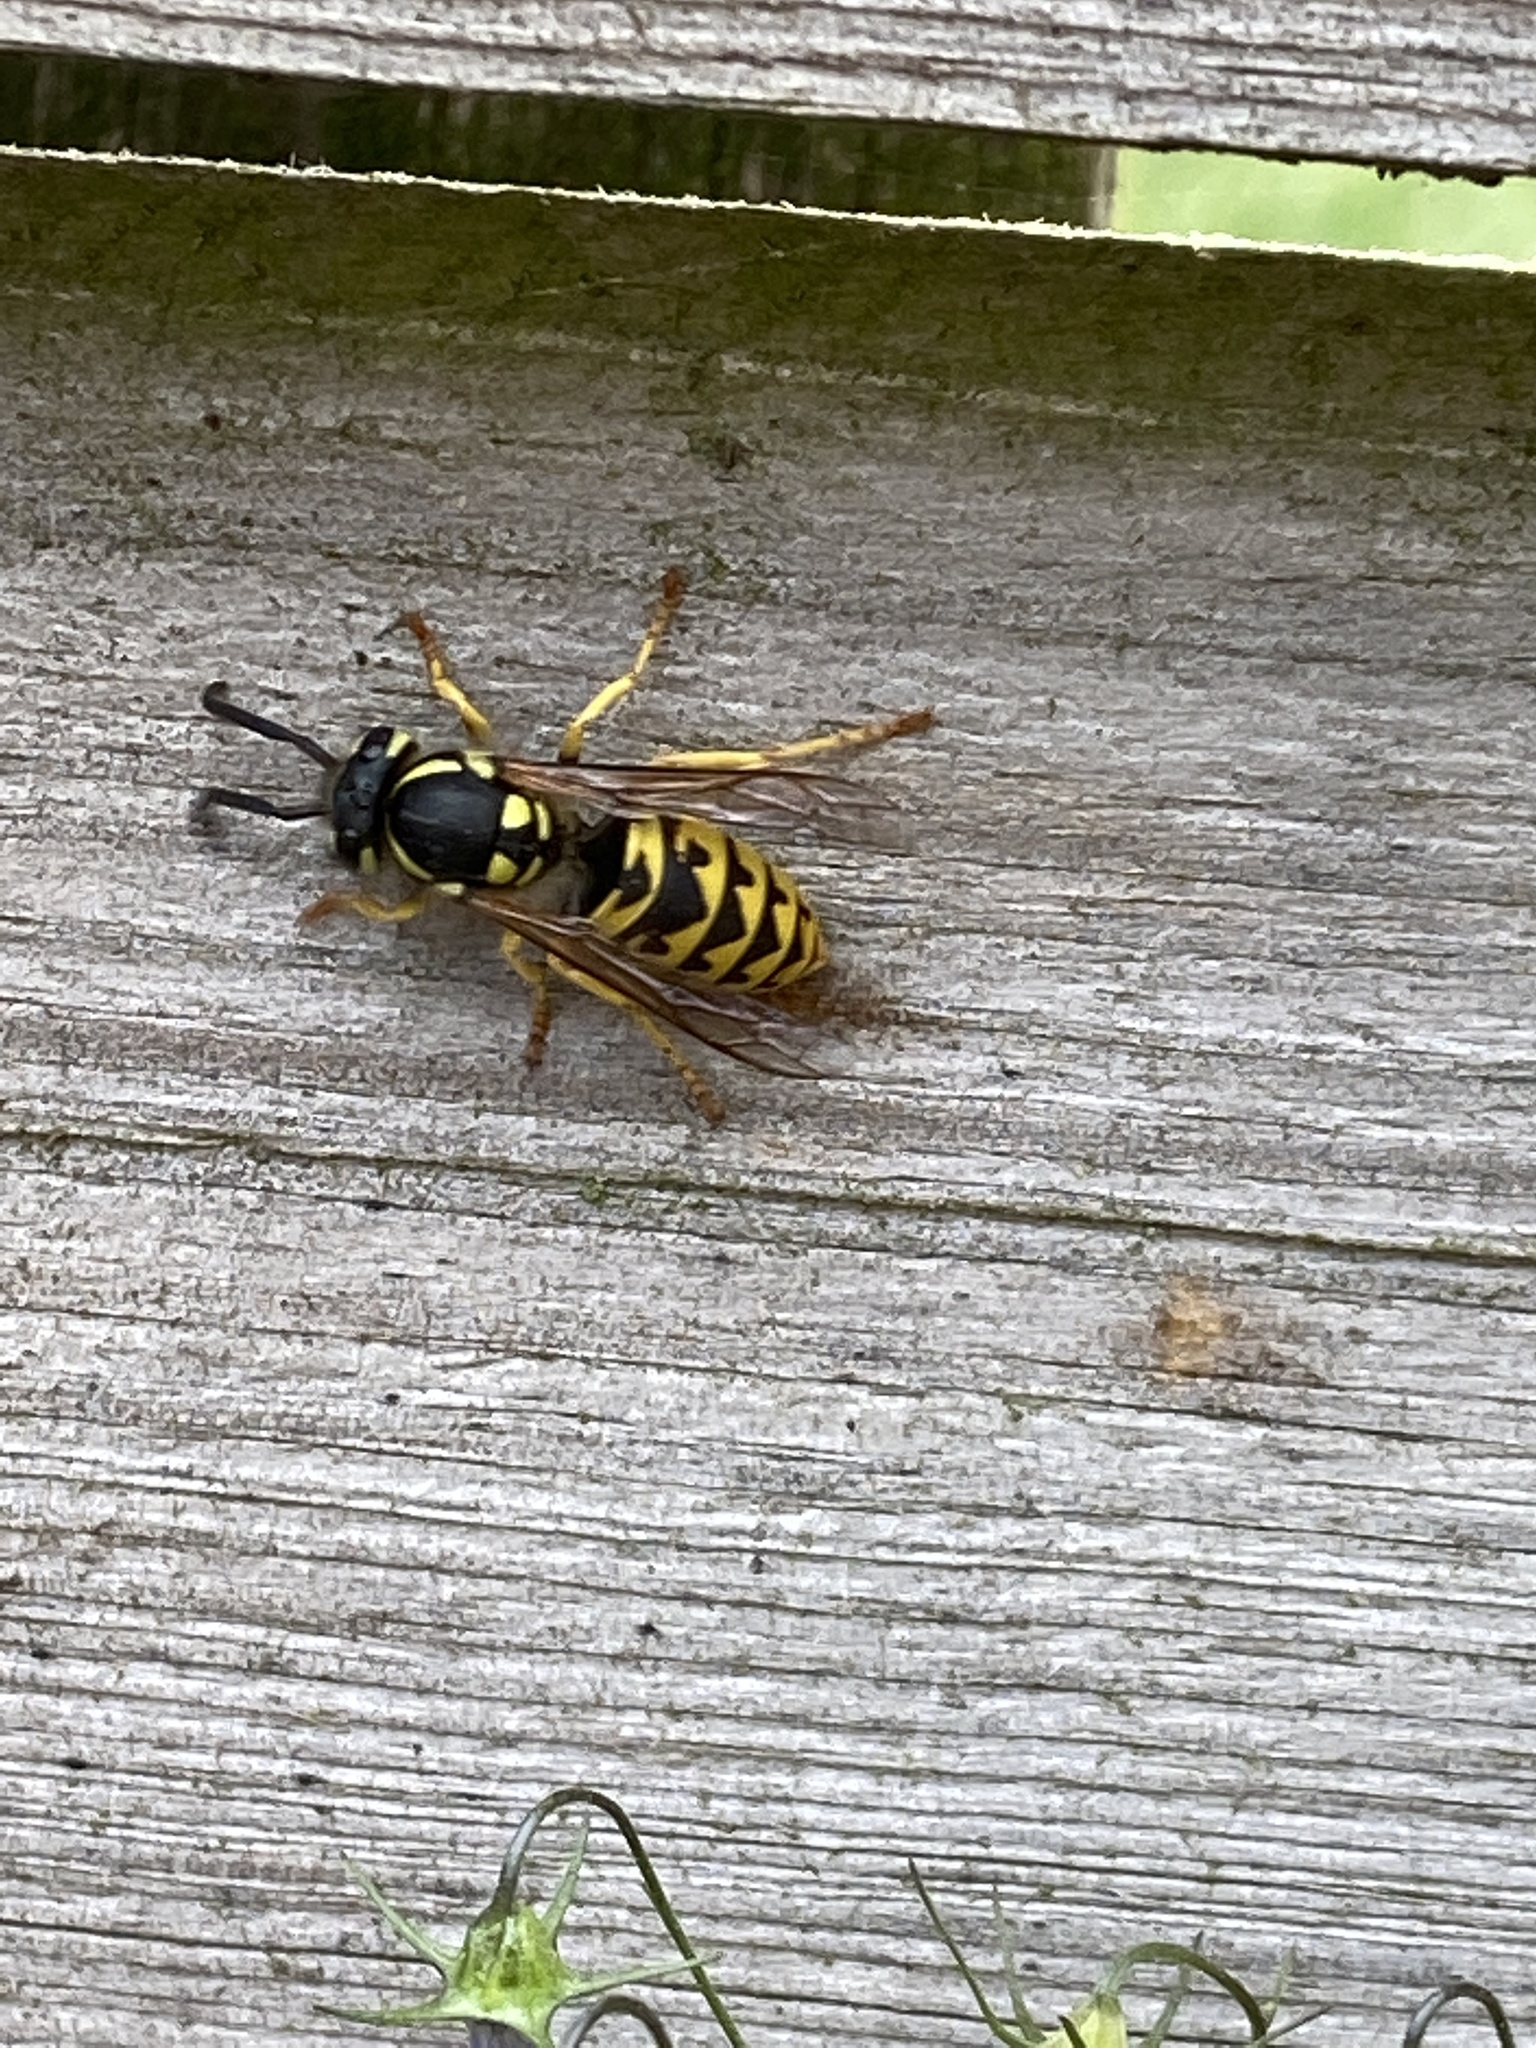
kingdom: Animalia
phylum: Arthropoda
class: Insecta
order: Hymenoptera
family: Vespidae
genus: Vespula
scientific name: Vespula germanica
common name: German wasp
